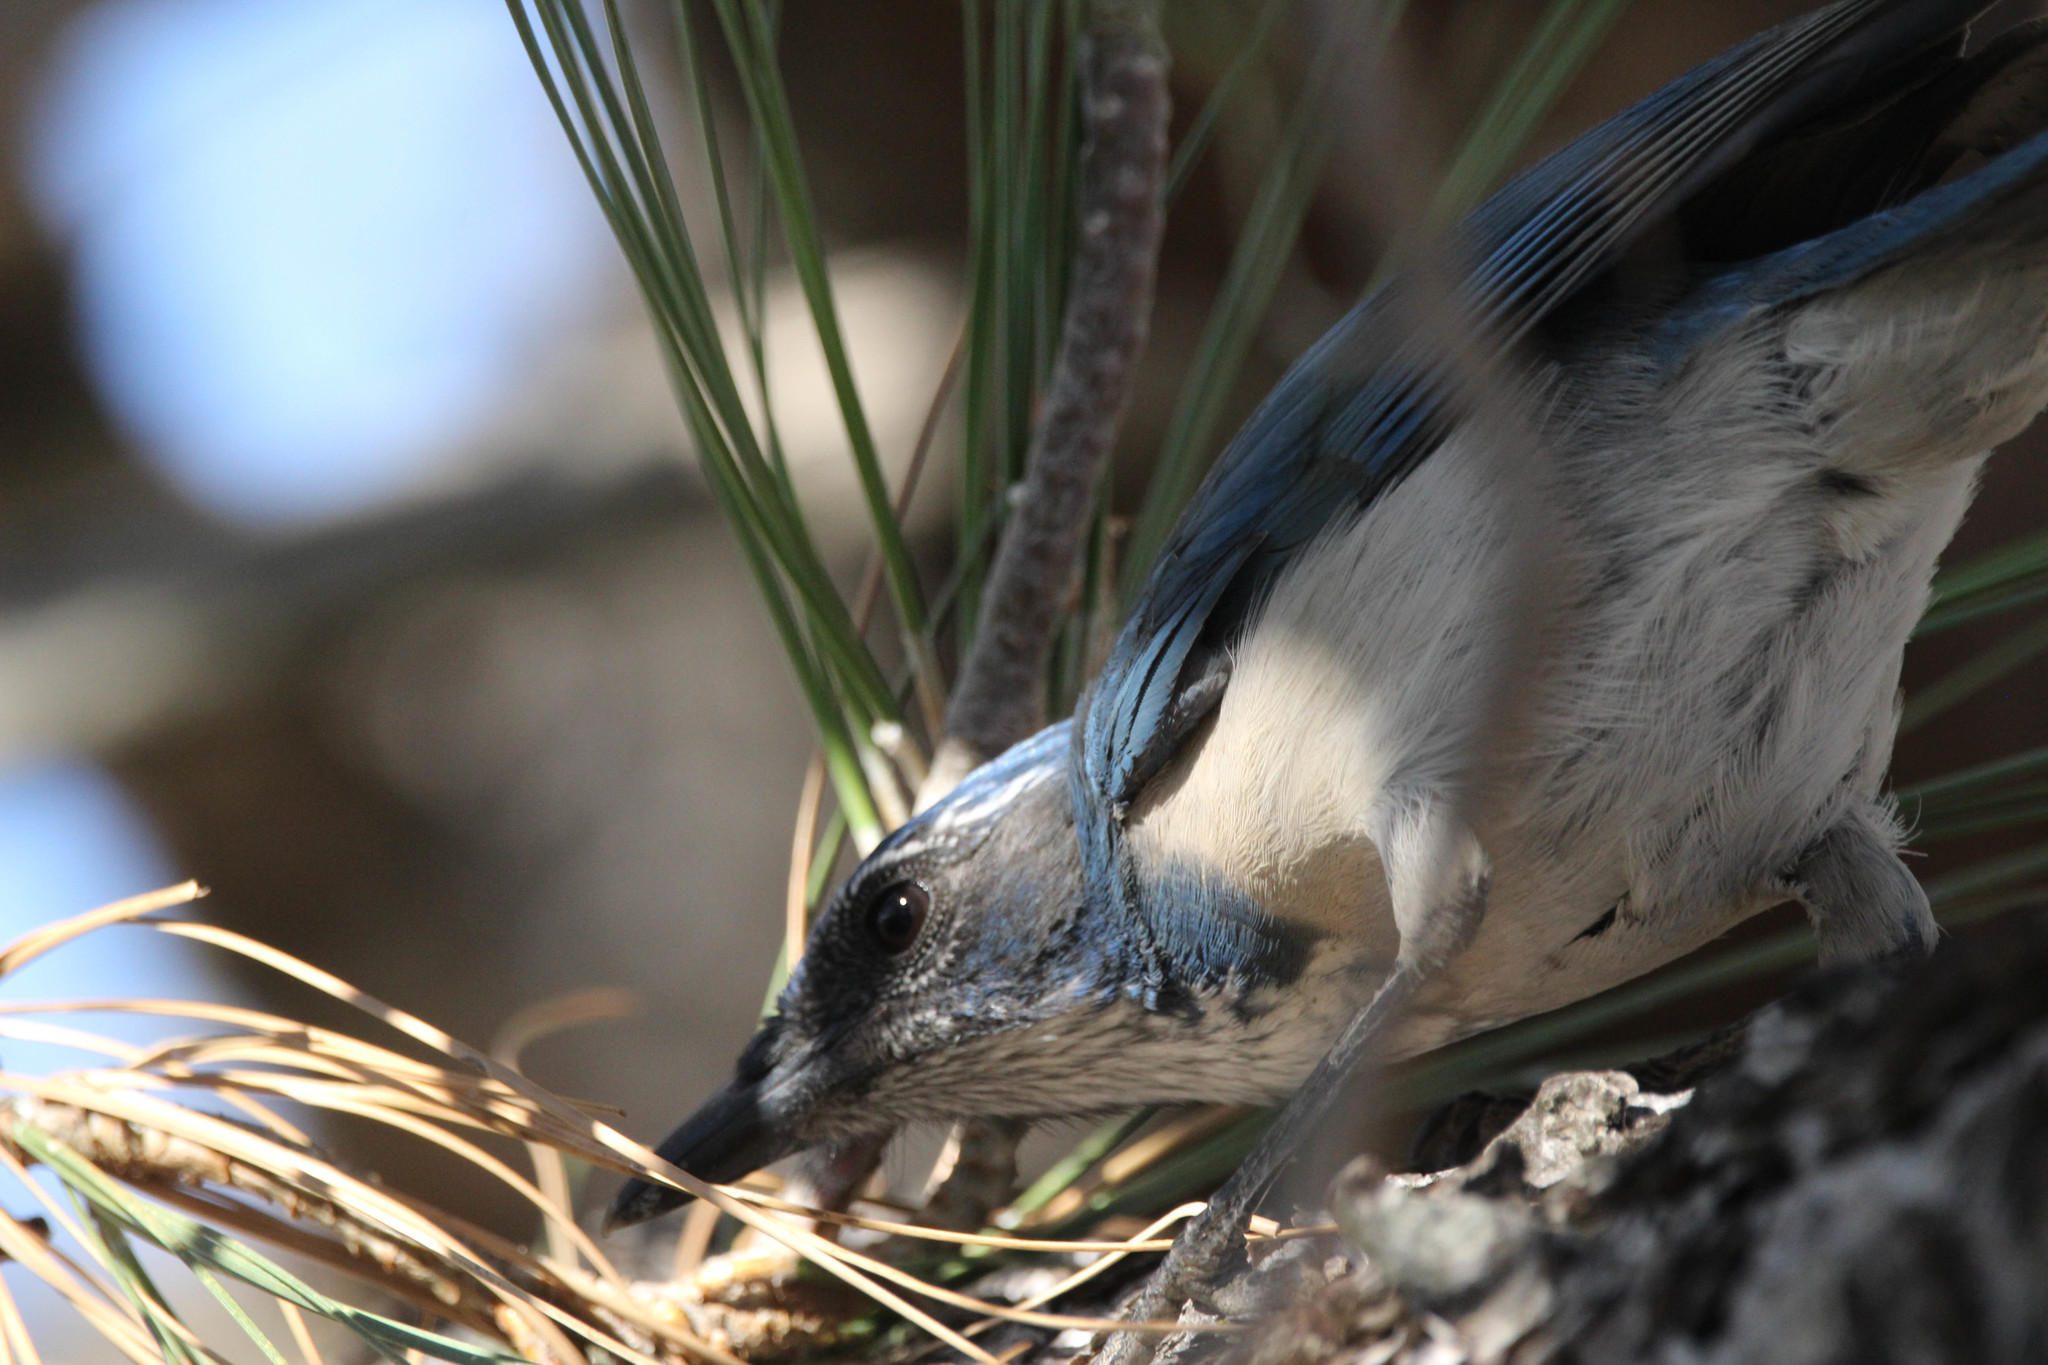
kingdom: Animalia
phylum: Chordata
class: Aves
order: Passeriformes
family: Corvidae
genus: Aphelocoma
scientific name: Aphelocoma californica
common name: California scrub-jay
